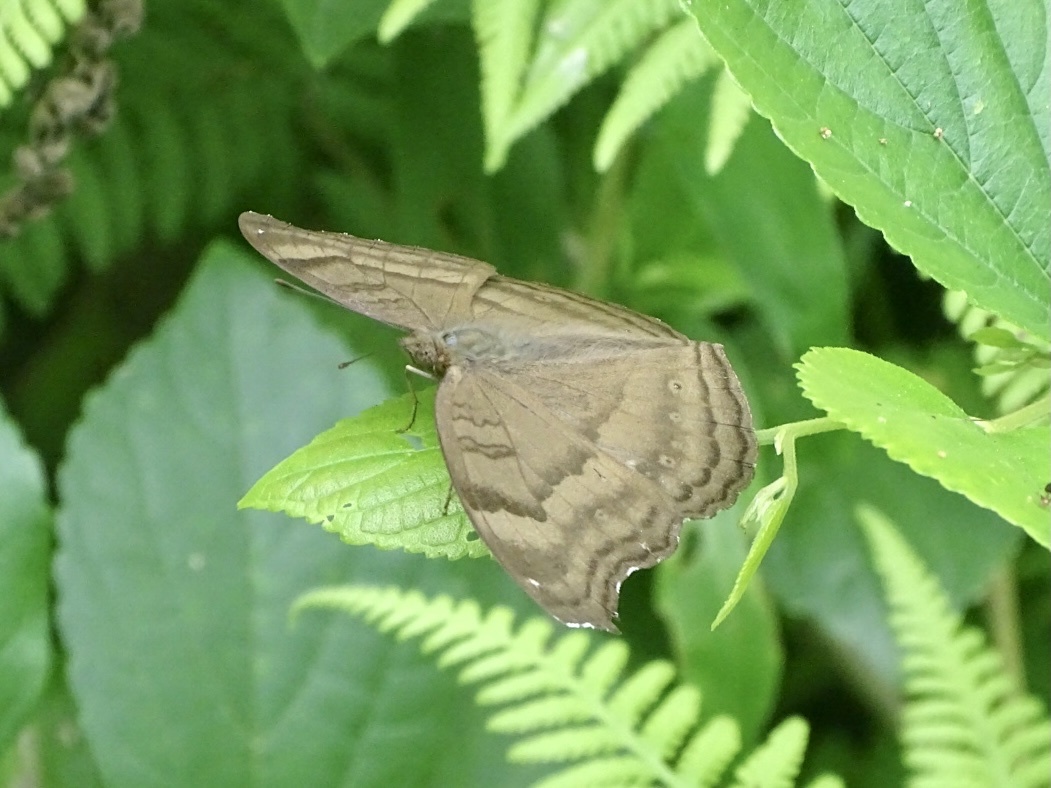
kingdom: Animalia
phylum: Arthropoda
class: Insecta
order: Lepidoptera
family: Nymphalidae
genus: Junonia
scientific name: Junonia iphita
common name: Chocolate pansy
